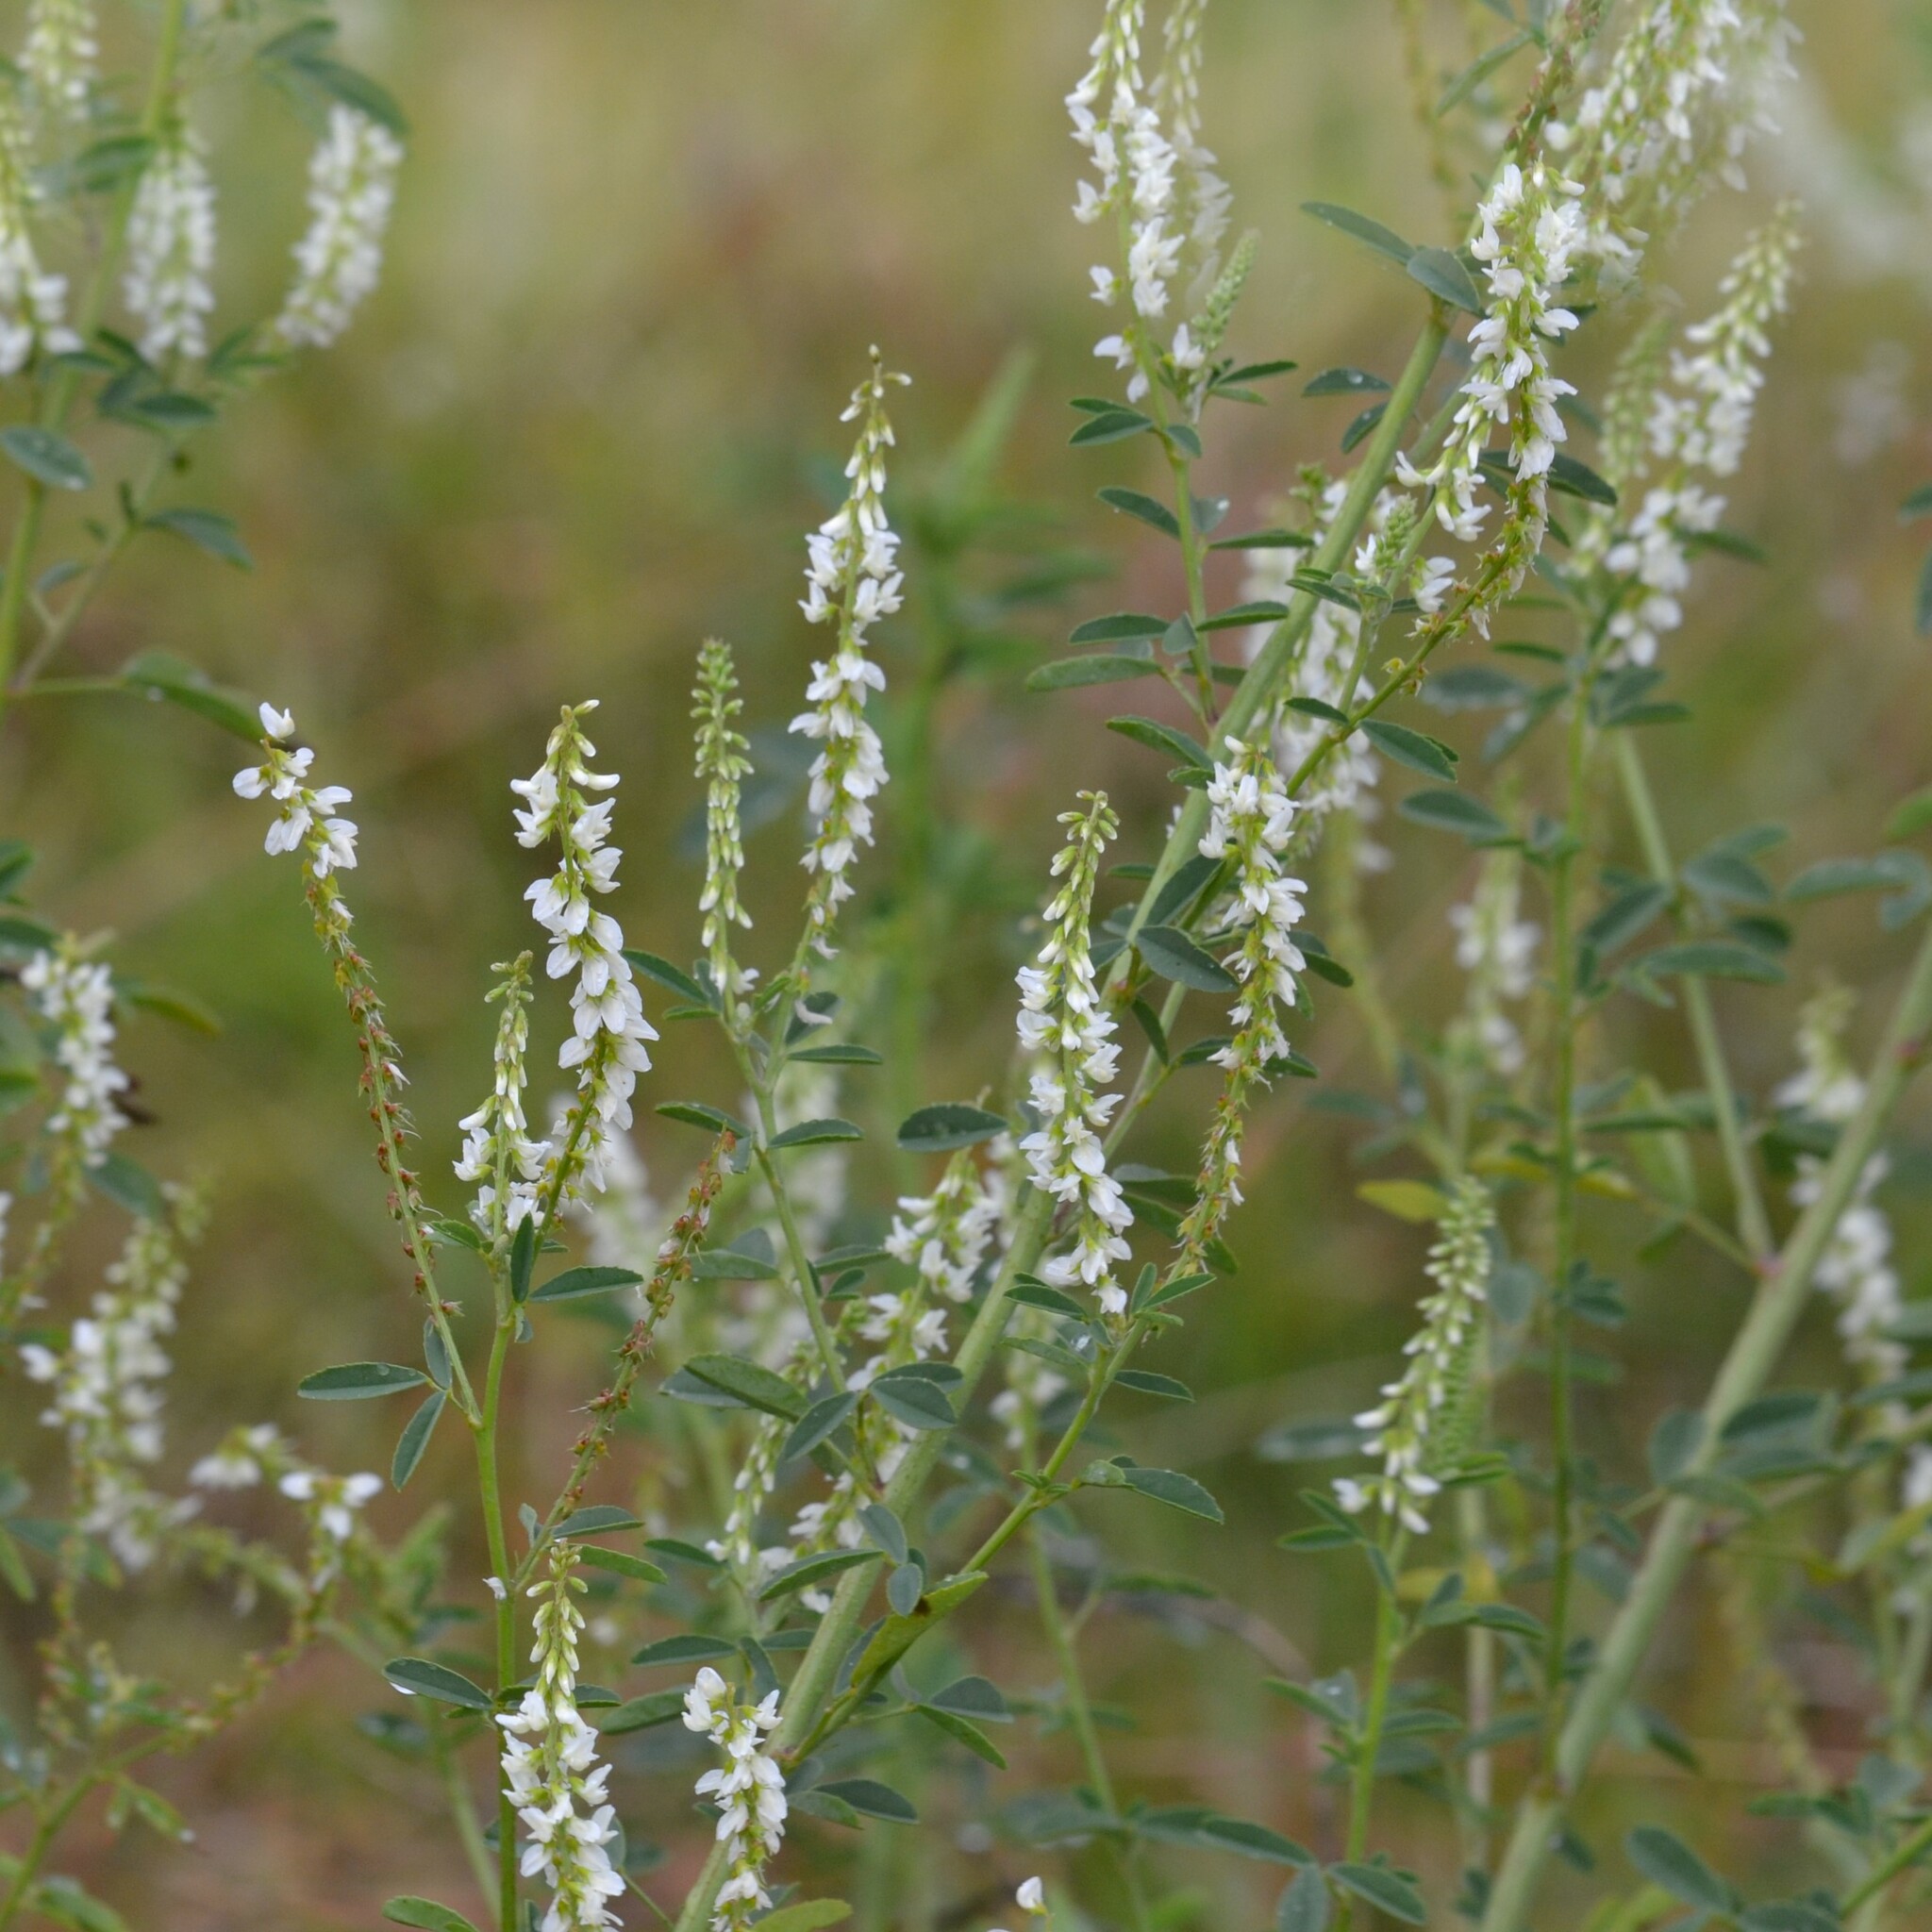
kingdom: Plantae
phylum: Tracheophyta
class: Magnoliopsida
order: Fabales
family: Fabaceae
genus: Melilotus
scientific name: Melilotus albus
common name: White melilot
